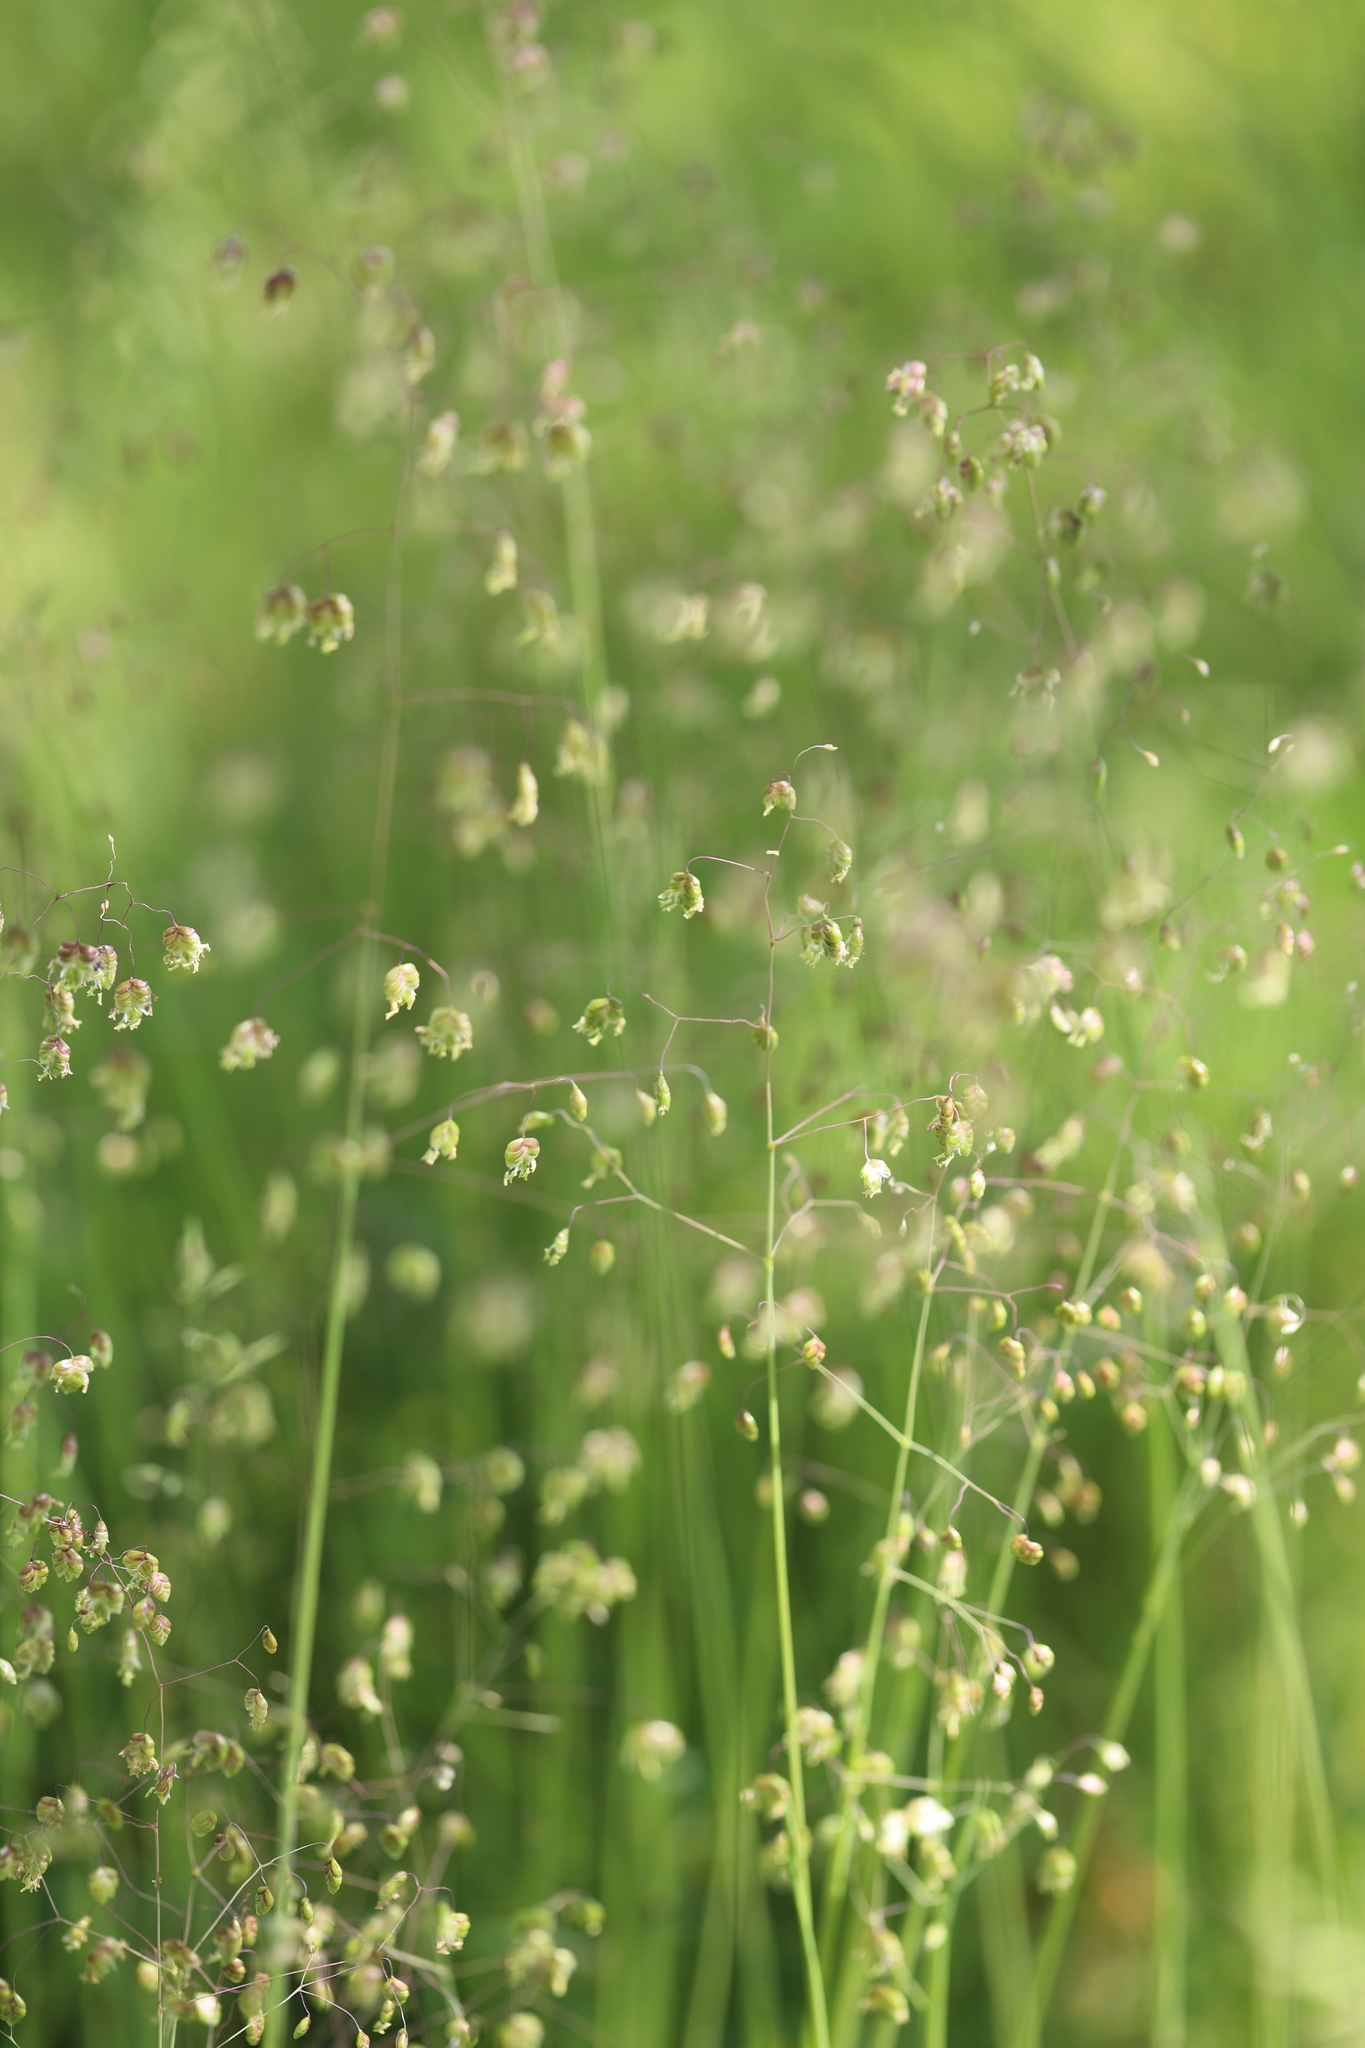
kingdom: Plantae
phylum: Tracheophyta
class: Liliopsida
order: Poales
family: Poaceae
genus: Briza
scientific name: Briza media
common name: Quaking grass
